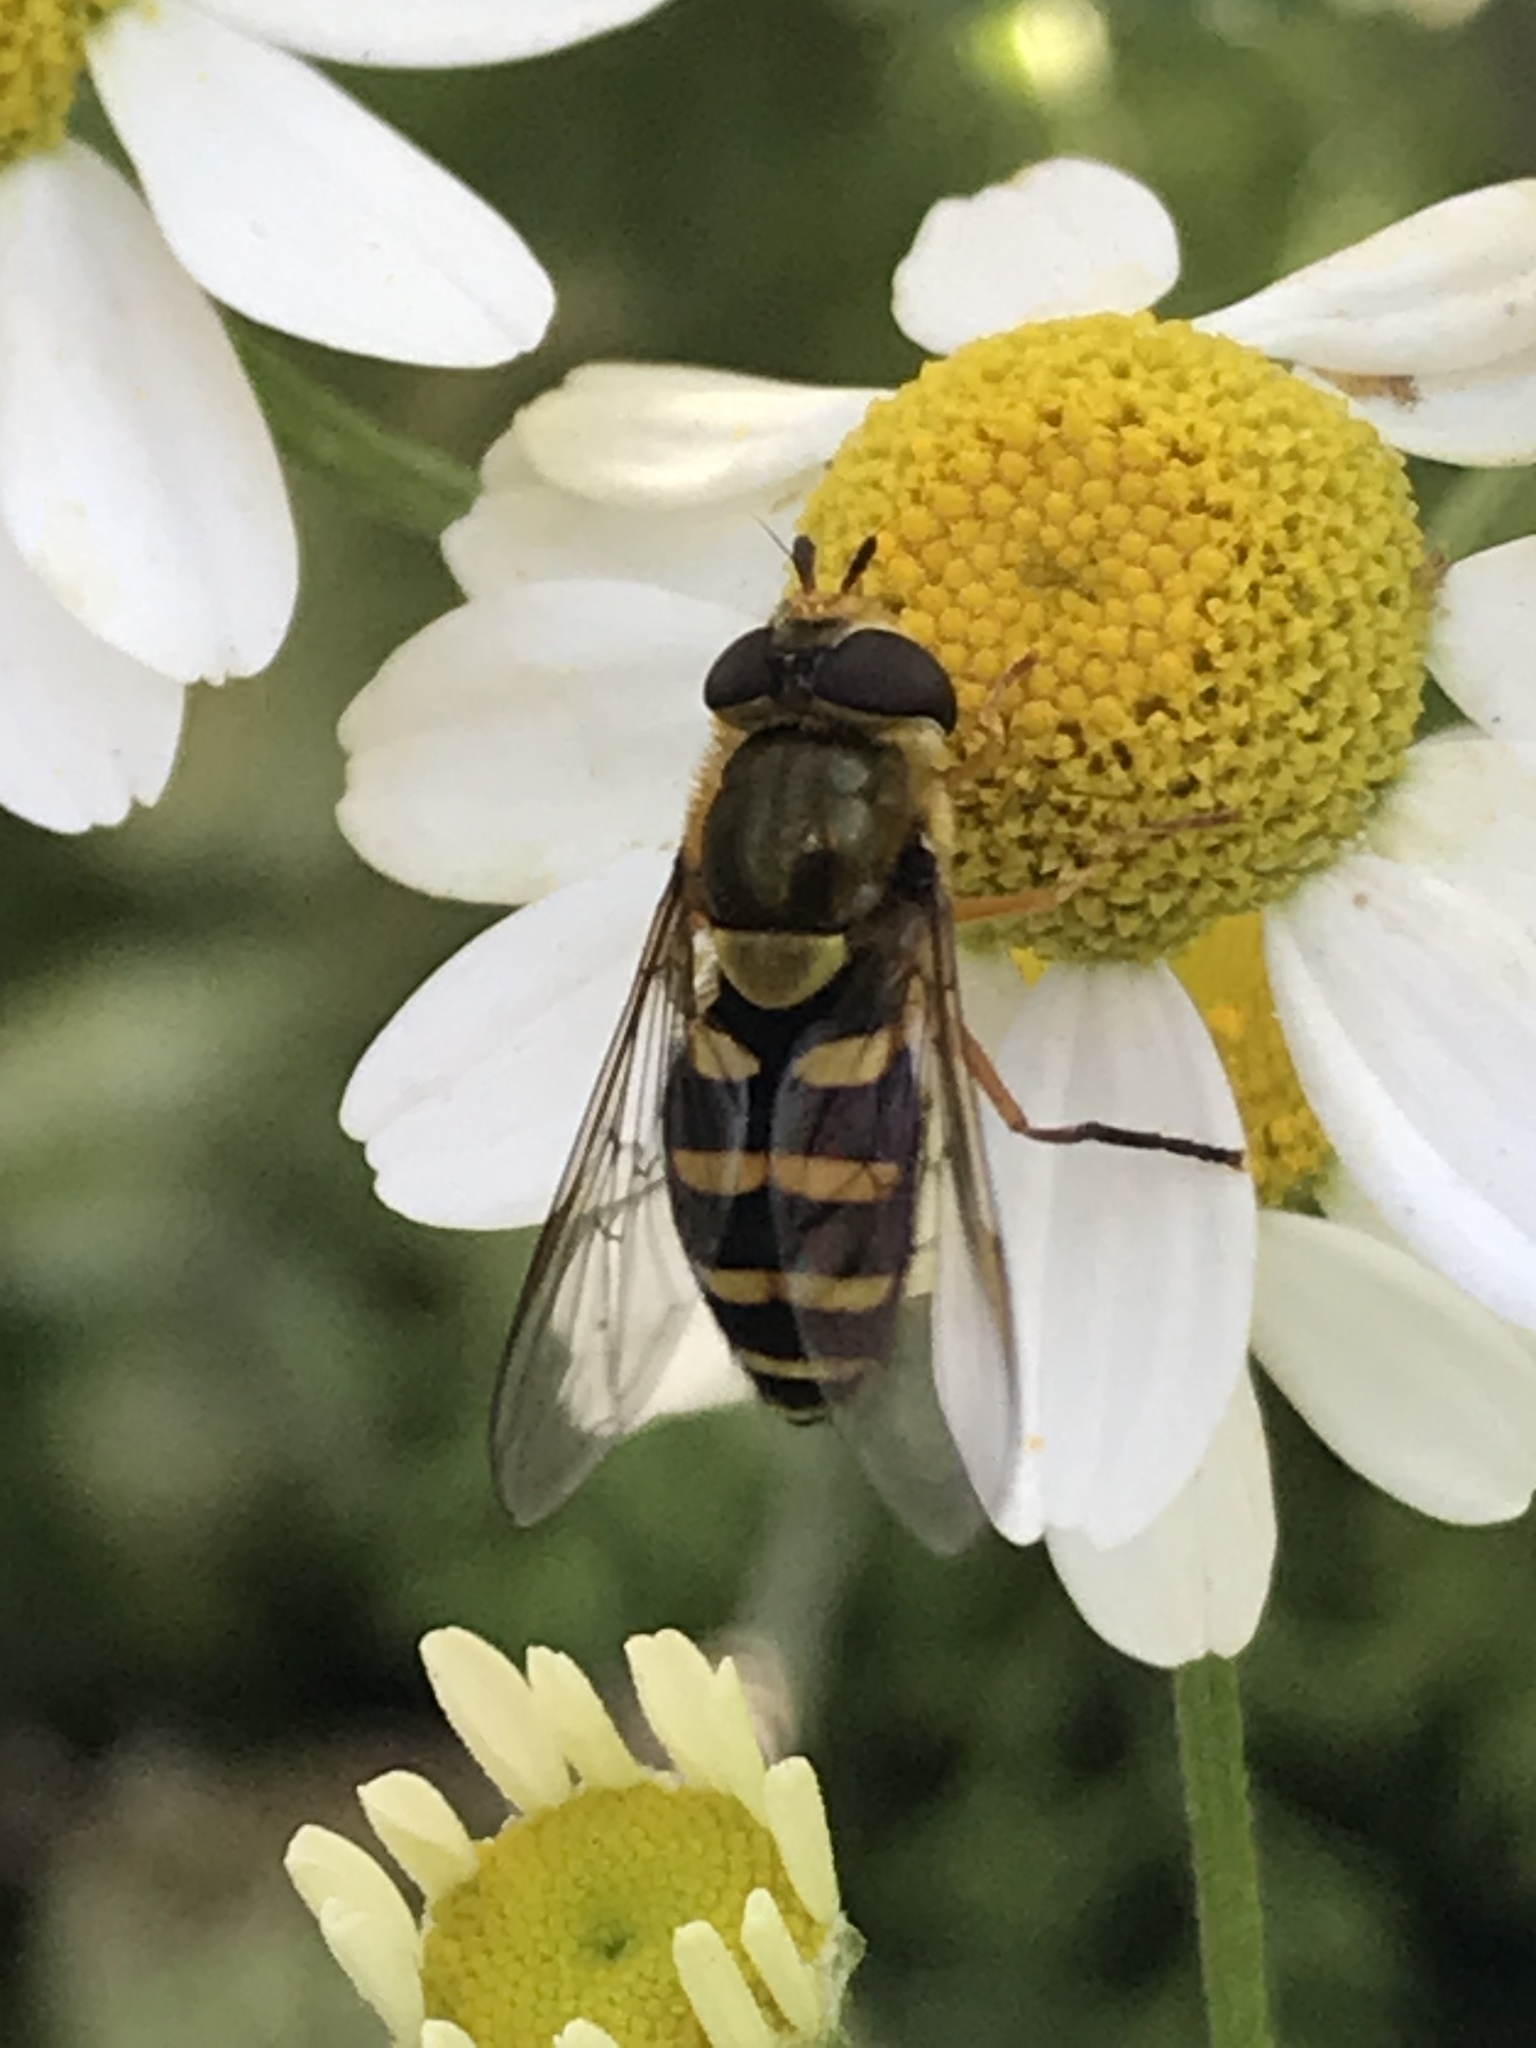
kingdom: Animalia
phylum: Arthropoda
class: Insecta
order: Diptera
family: Syrphidae
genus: Syrphus
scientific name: Syrphus opinator
